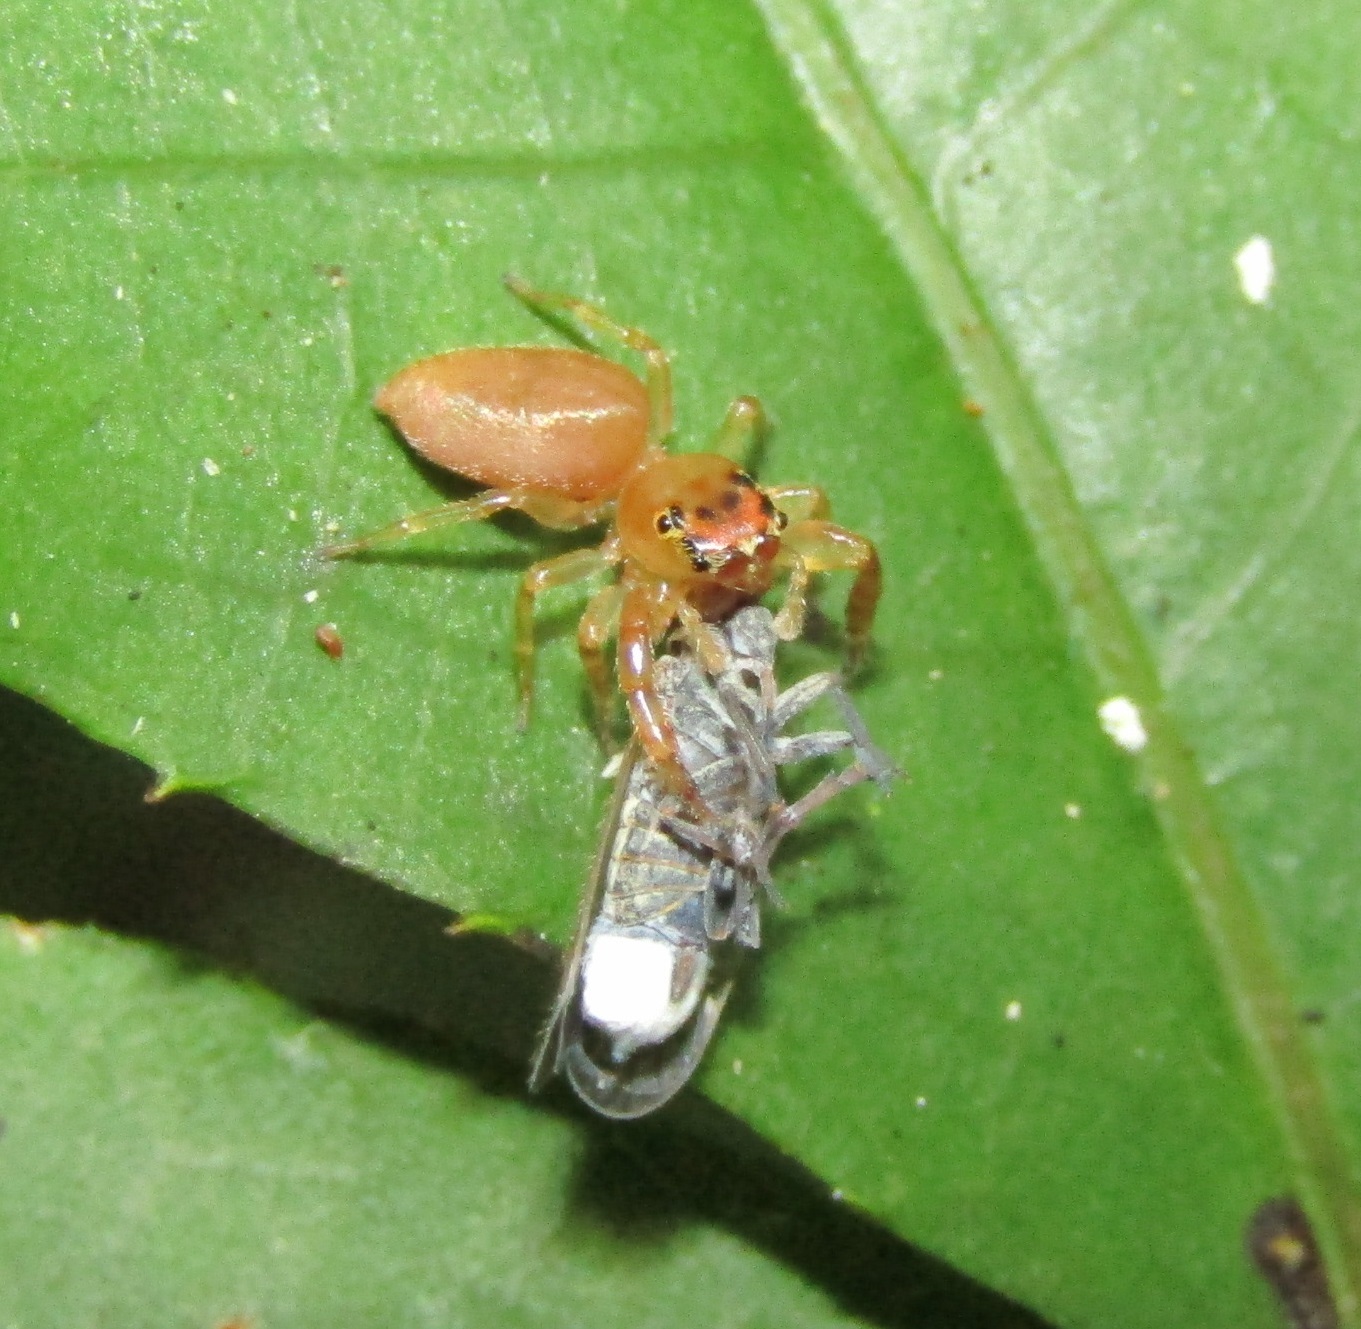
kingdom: Animalia
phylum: Arthropoda
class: Arachnida
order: Araneae
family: Salticidae
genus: Trite
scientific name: Trite mustilina
